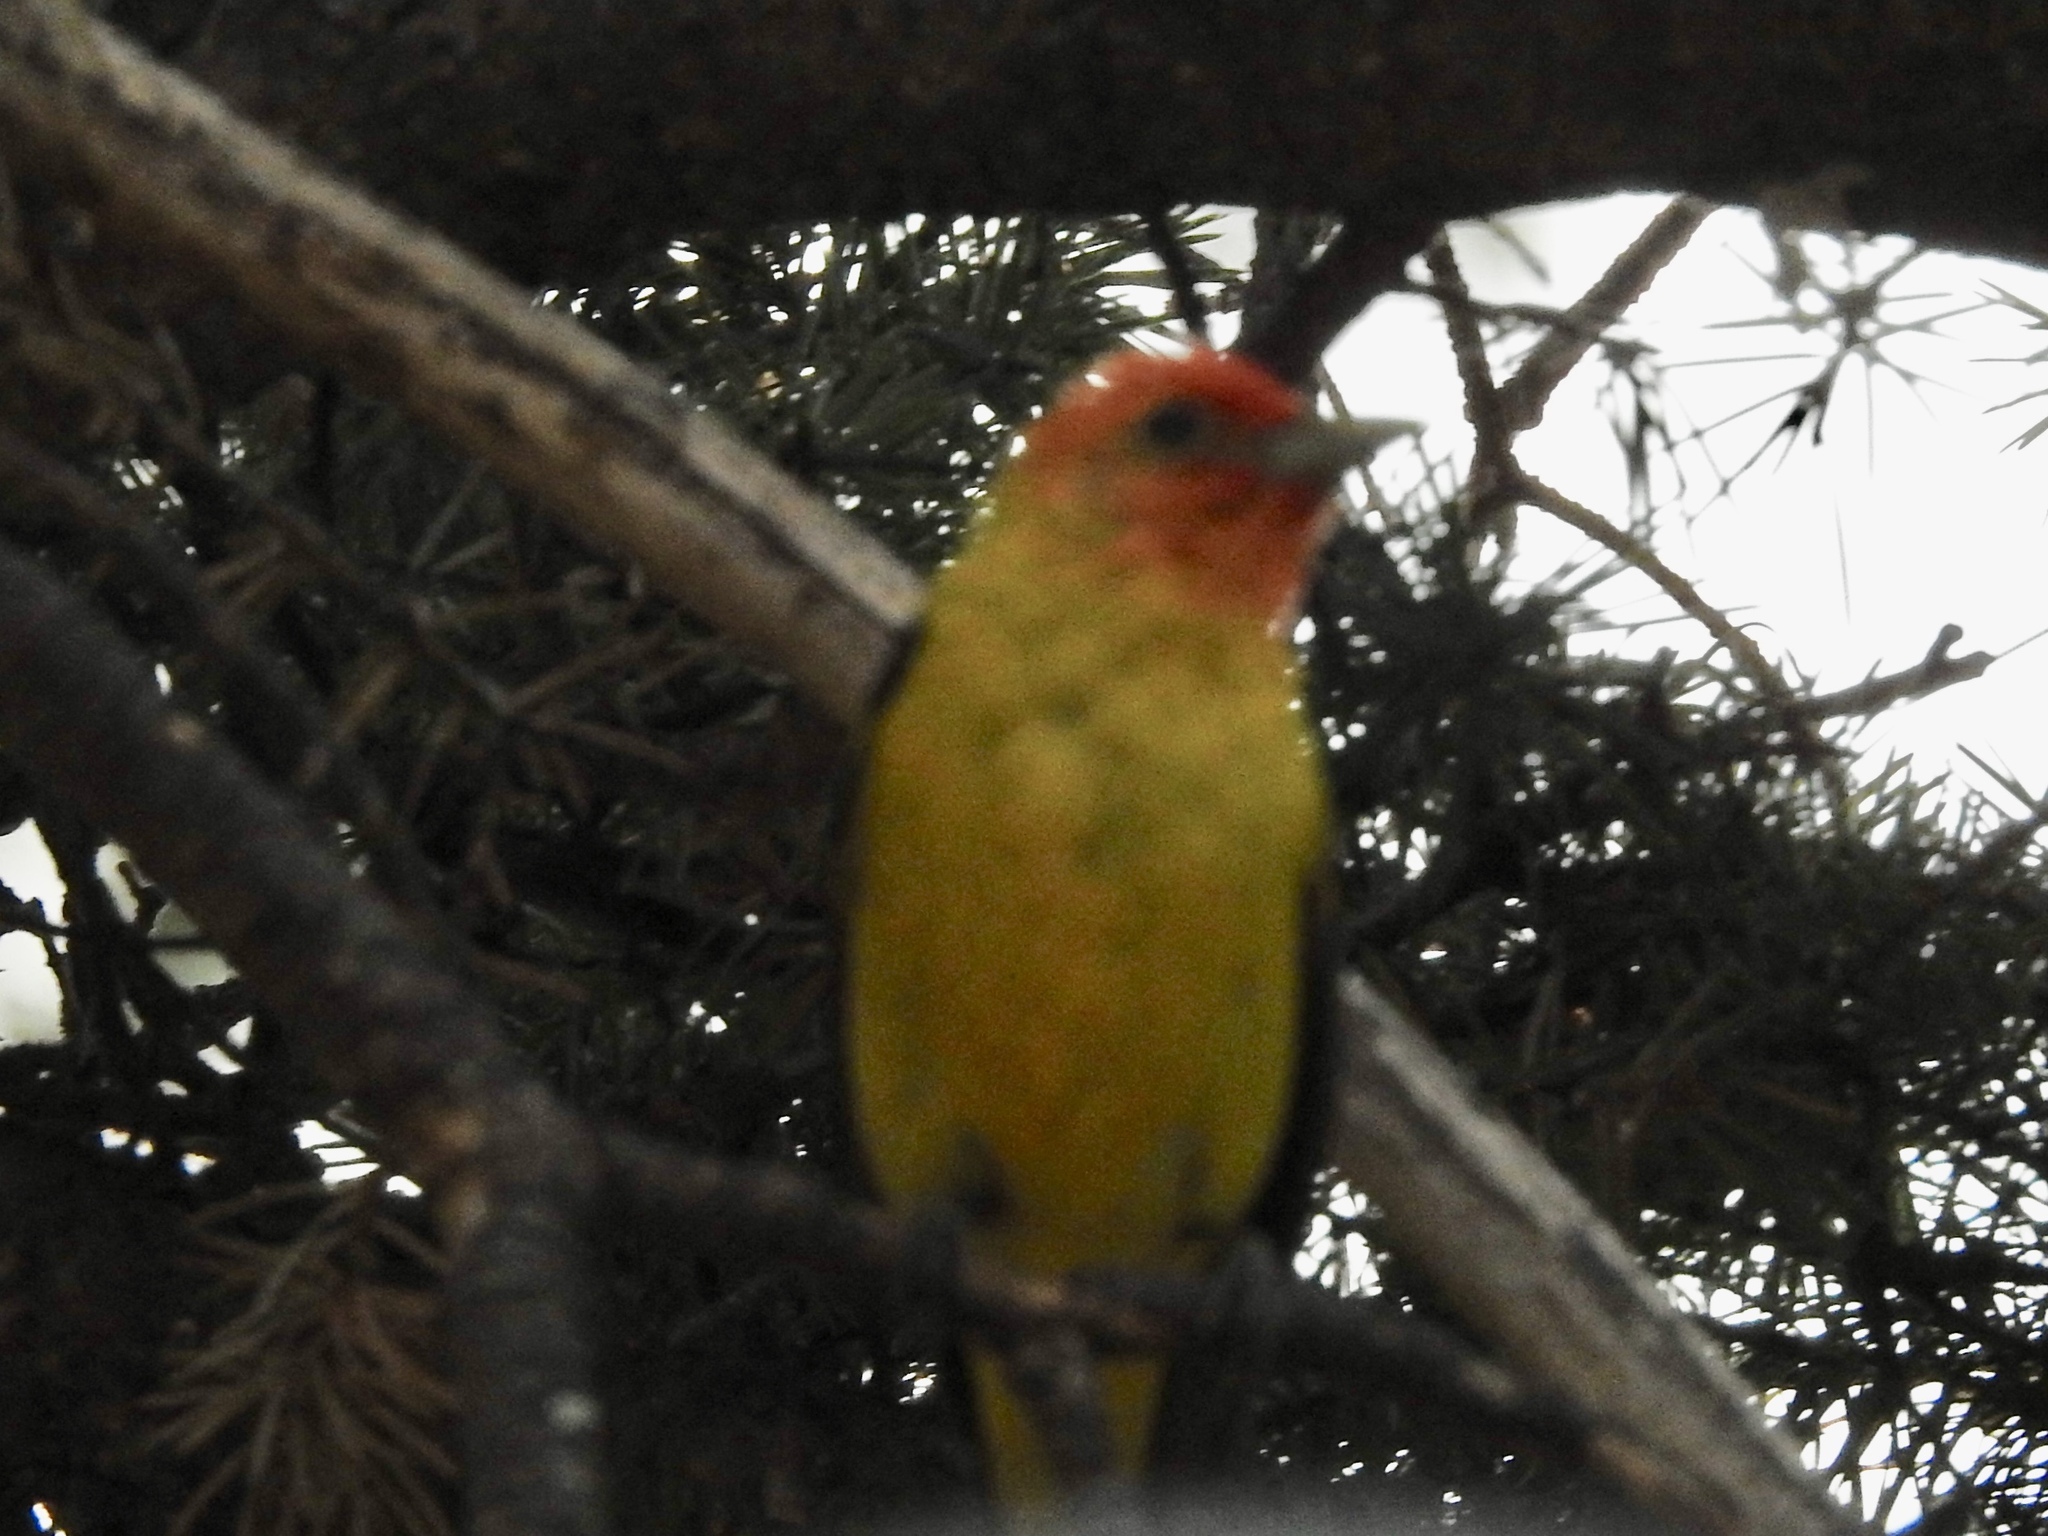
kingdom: Animalia
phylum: Chordata
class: Aves
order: Passeriformes
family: Cardinalidae
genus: Piranga
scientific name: Piranga ludoviciana
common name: Western tanager
